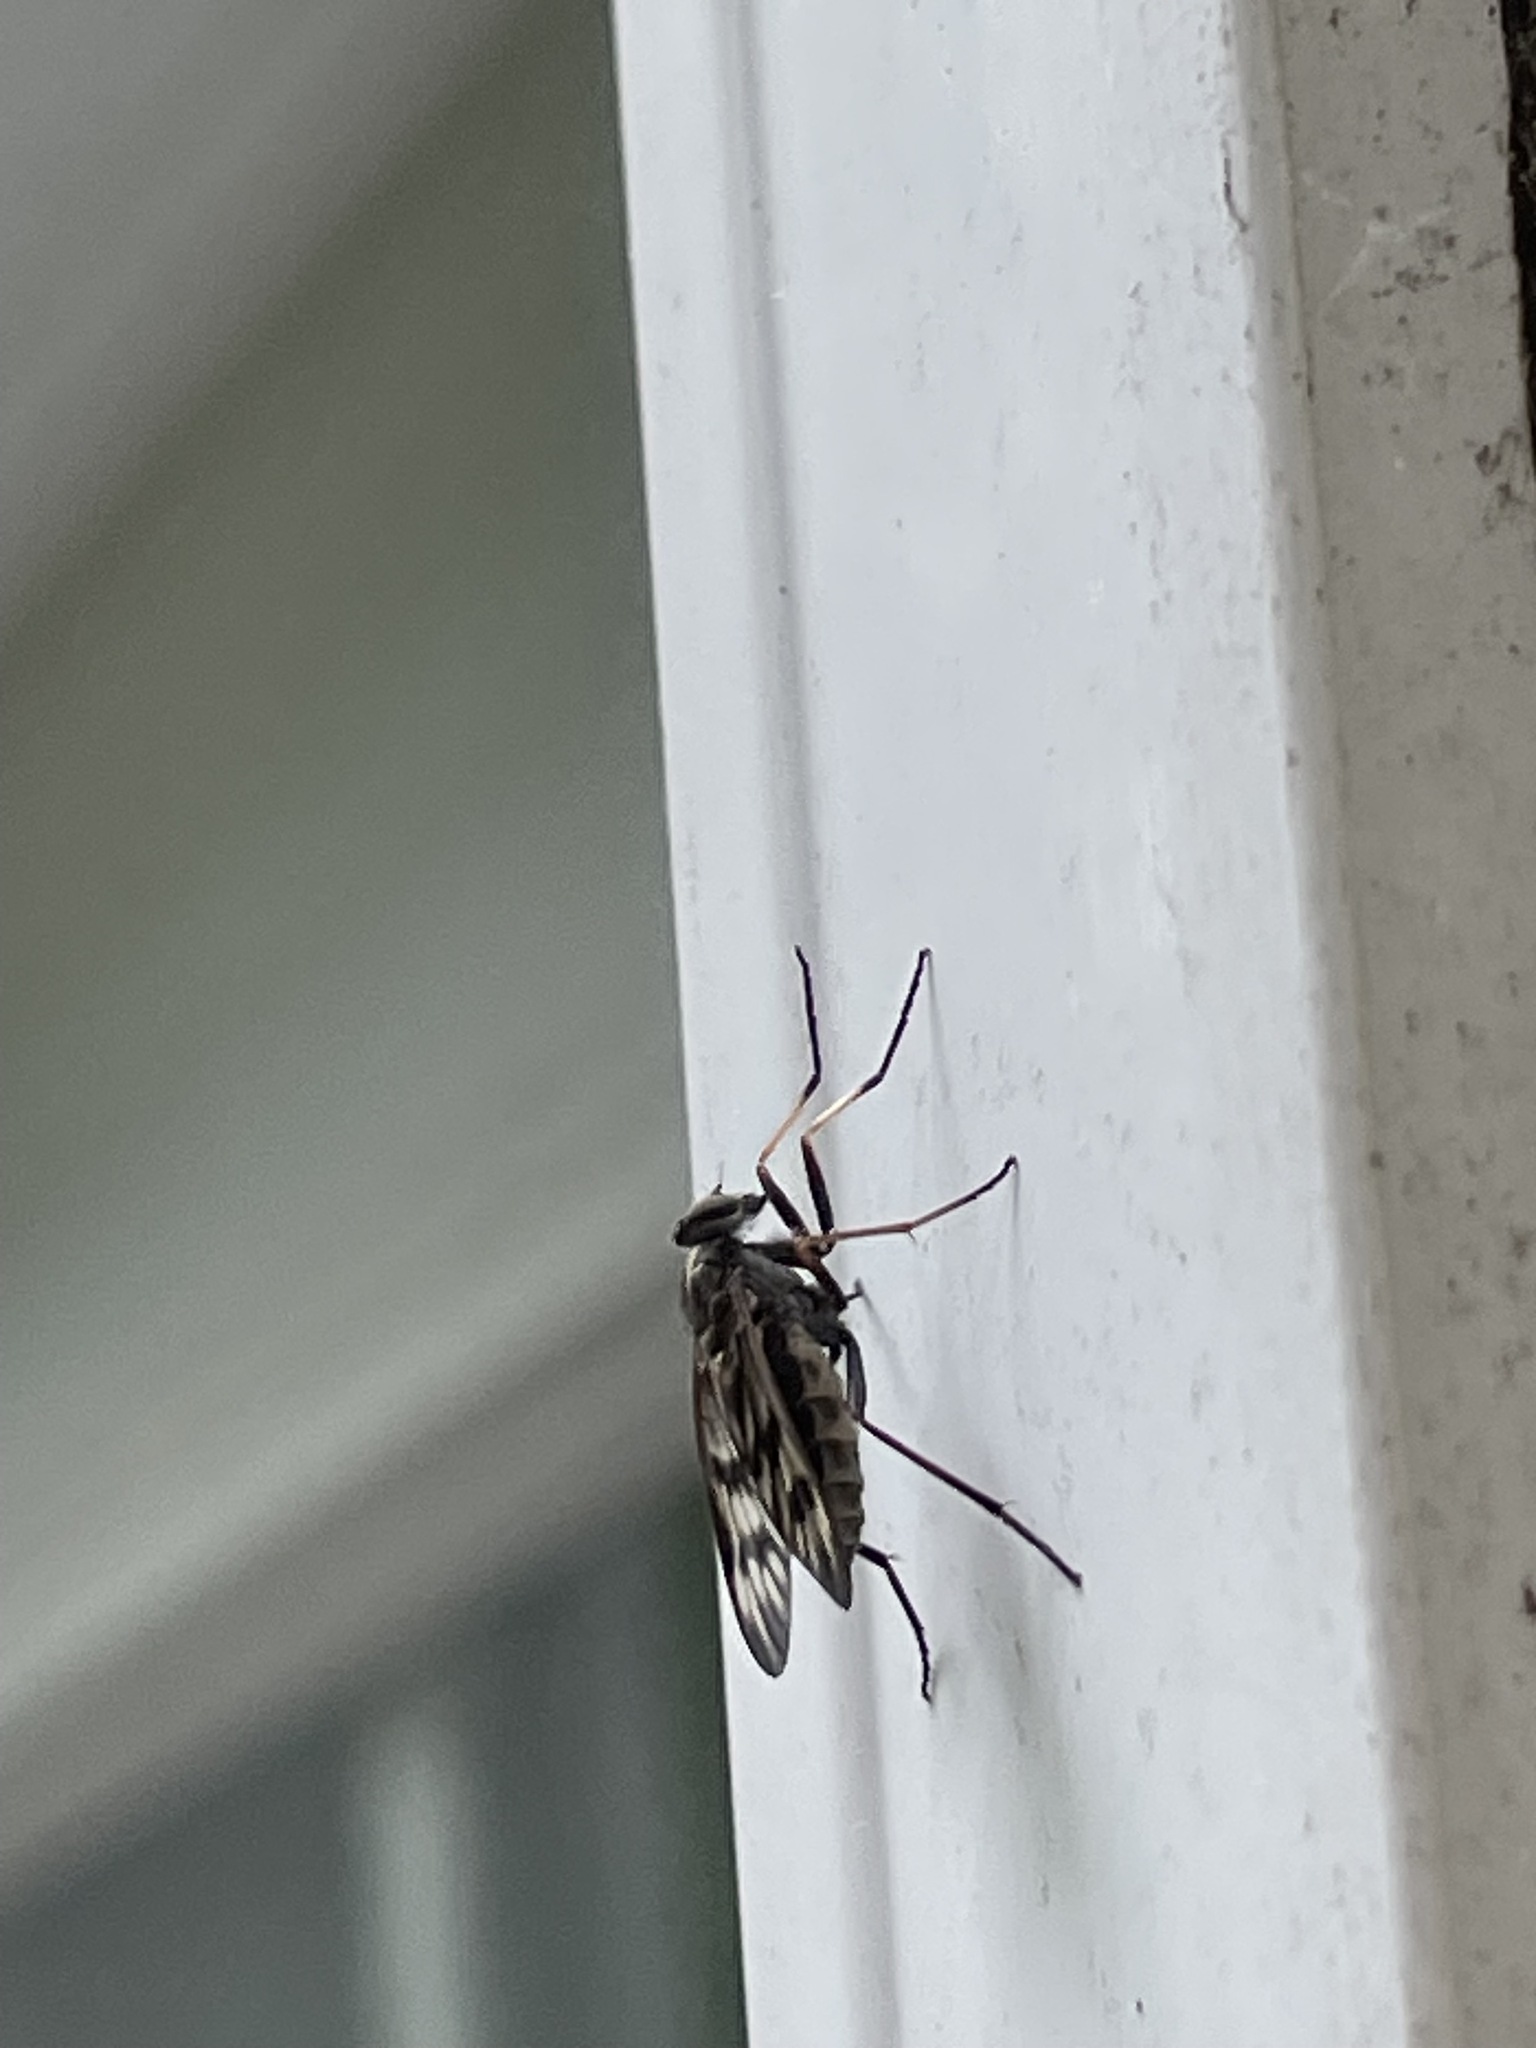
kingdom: Animalia
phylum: Arthropoda
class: Insecta
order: Diptera
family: Rhagionidae
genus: Rhagio
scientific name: Rhagio mystaceus
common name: Common snipe fly
